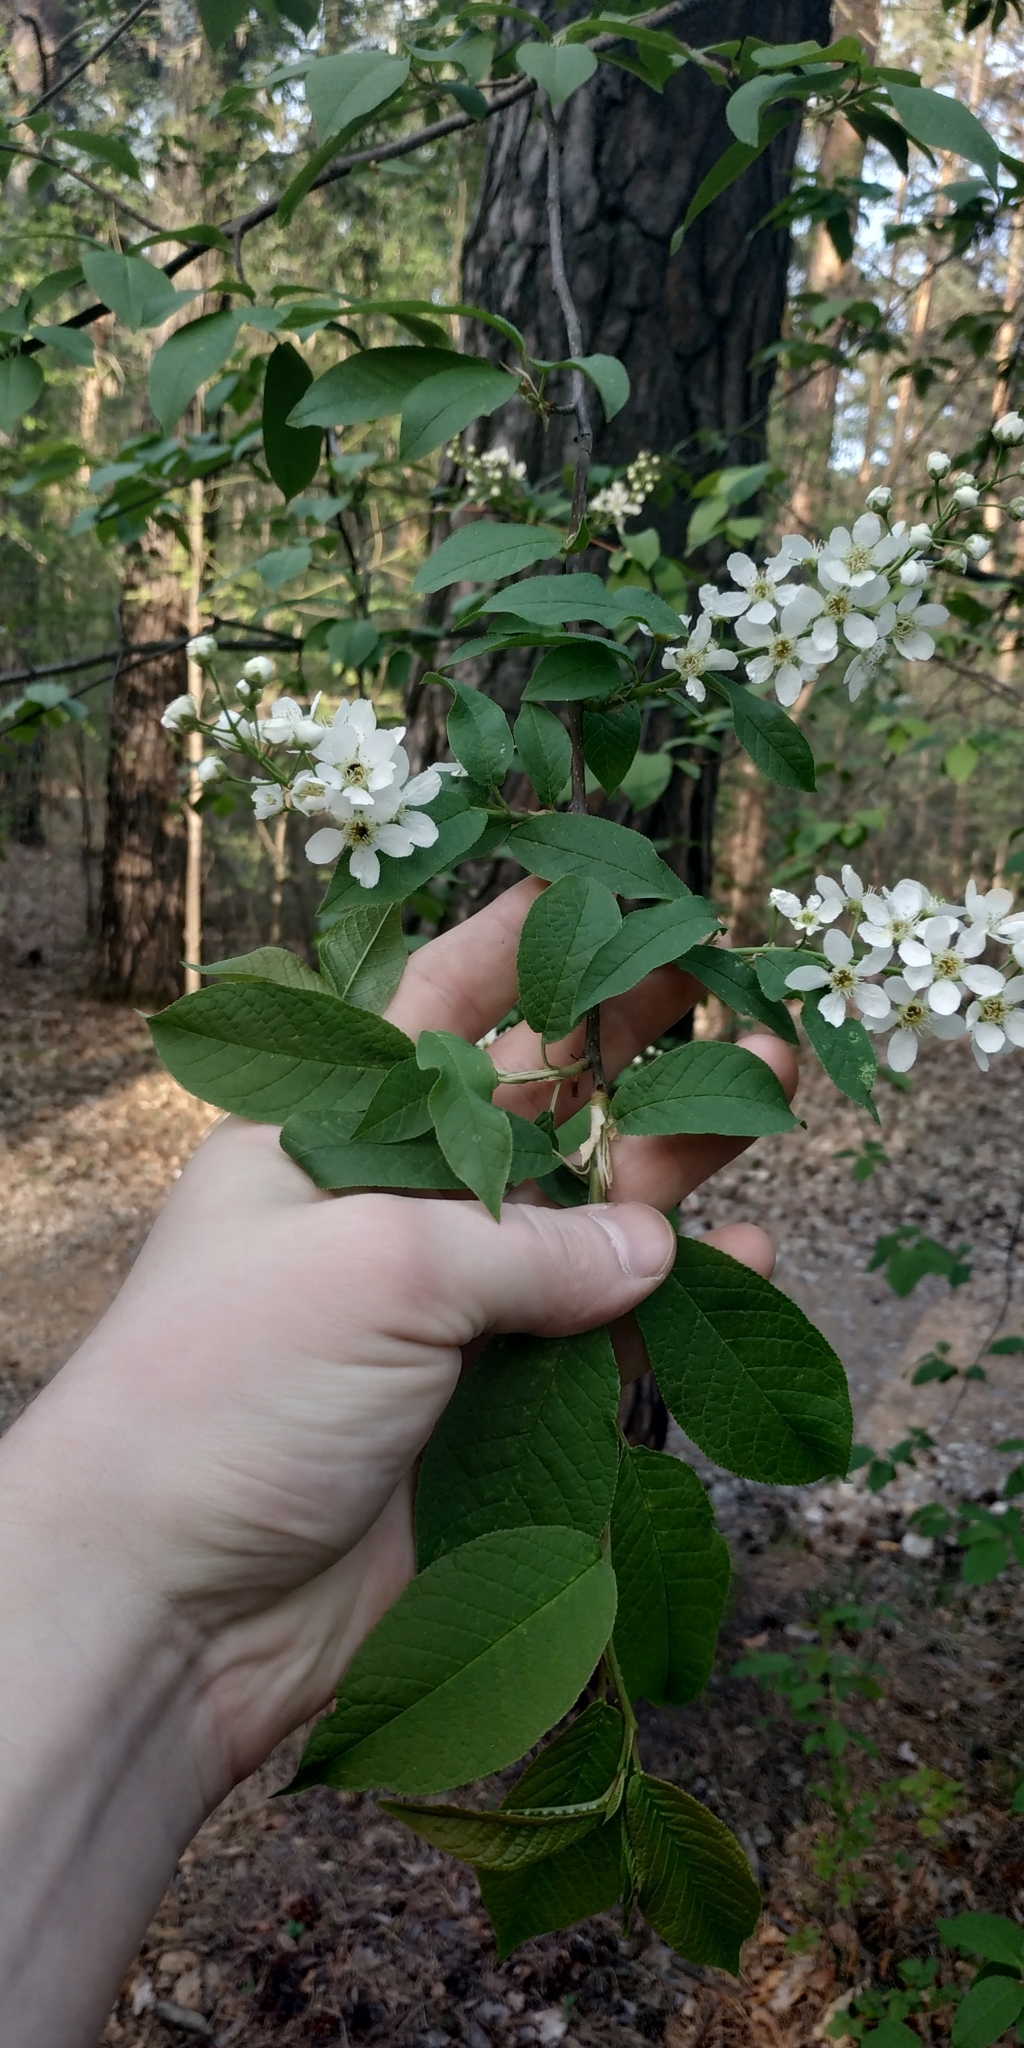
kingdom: Plantae
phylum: Tracheophyta
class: Magnoliopsida
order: Rosales
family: Rosaceae
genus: Prunus
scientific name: Prunus padus
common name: Bird cherry
